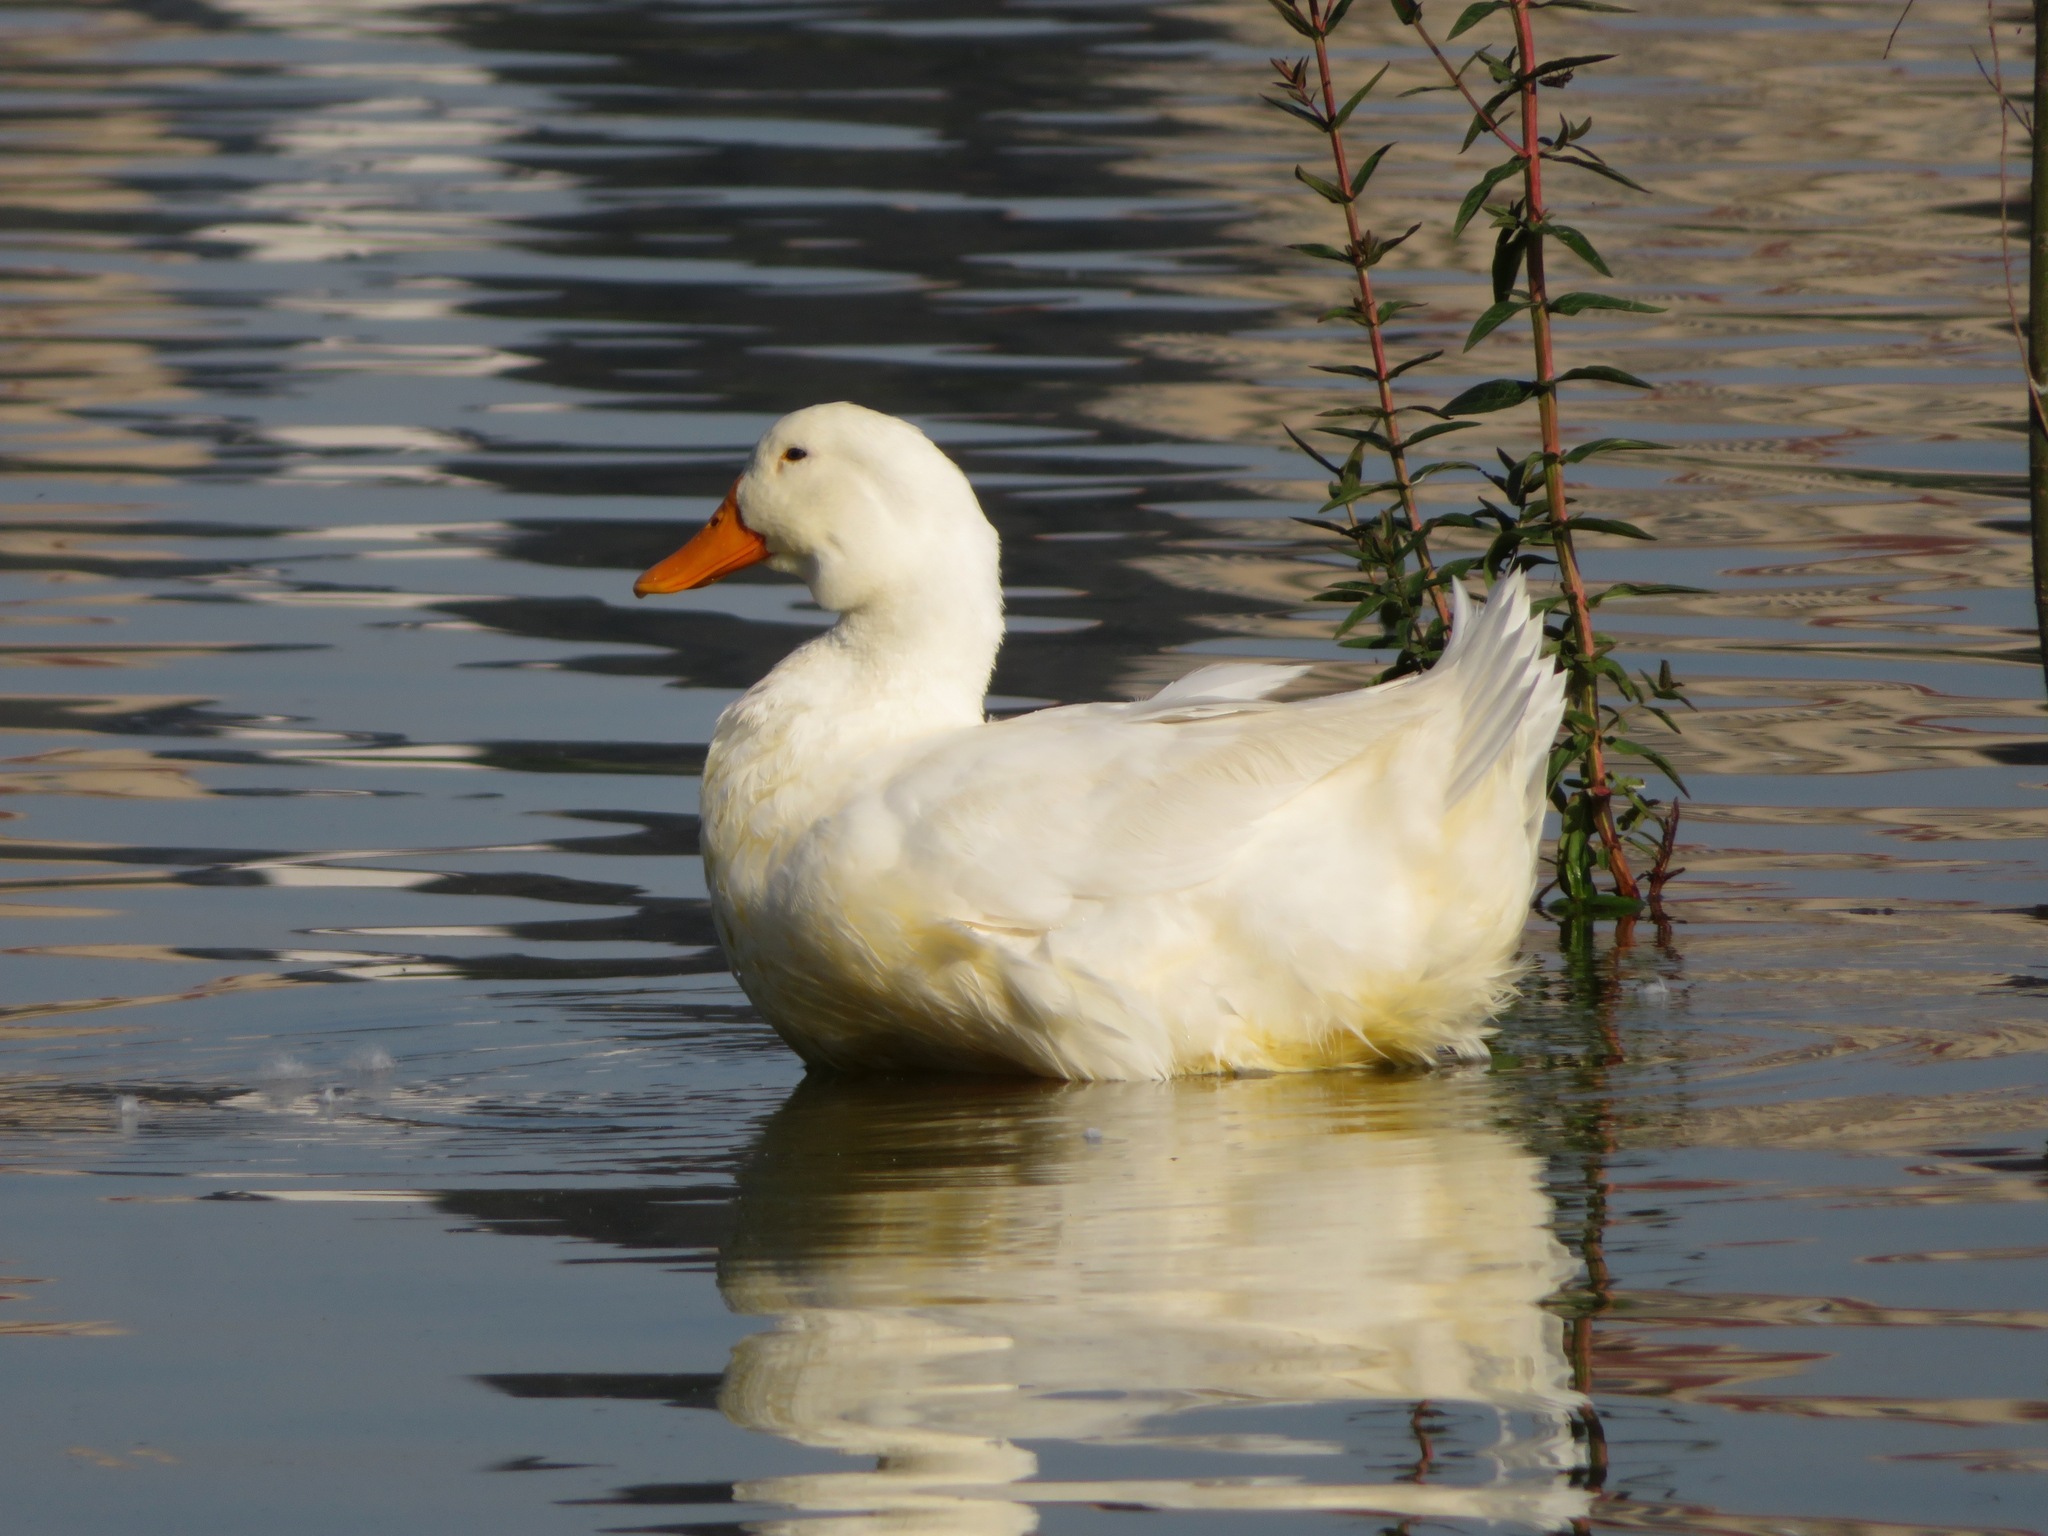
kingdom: Animalia
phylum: Chordata
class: Aves
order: Anseriformes
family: Anatidae
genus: Anas
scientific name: Anas platyrhynchos
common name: Mallard
